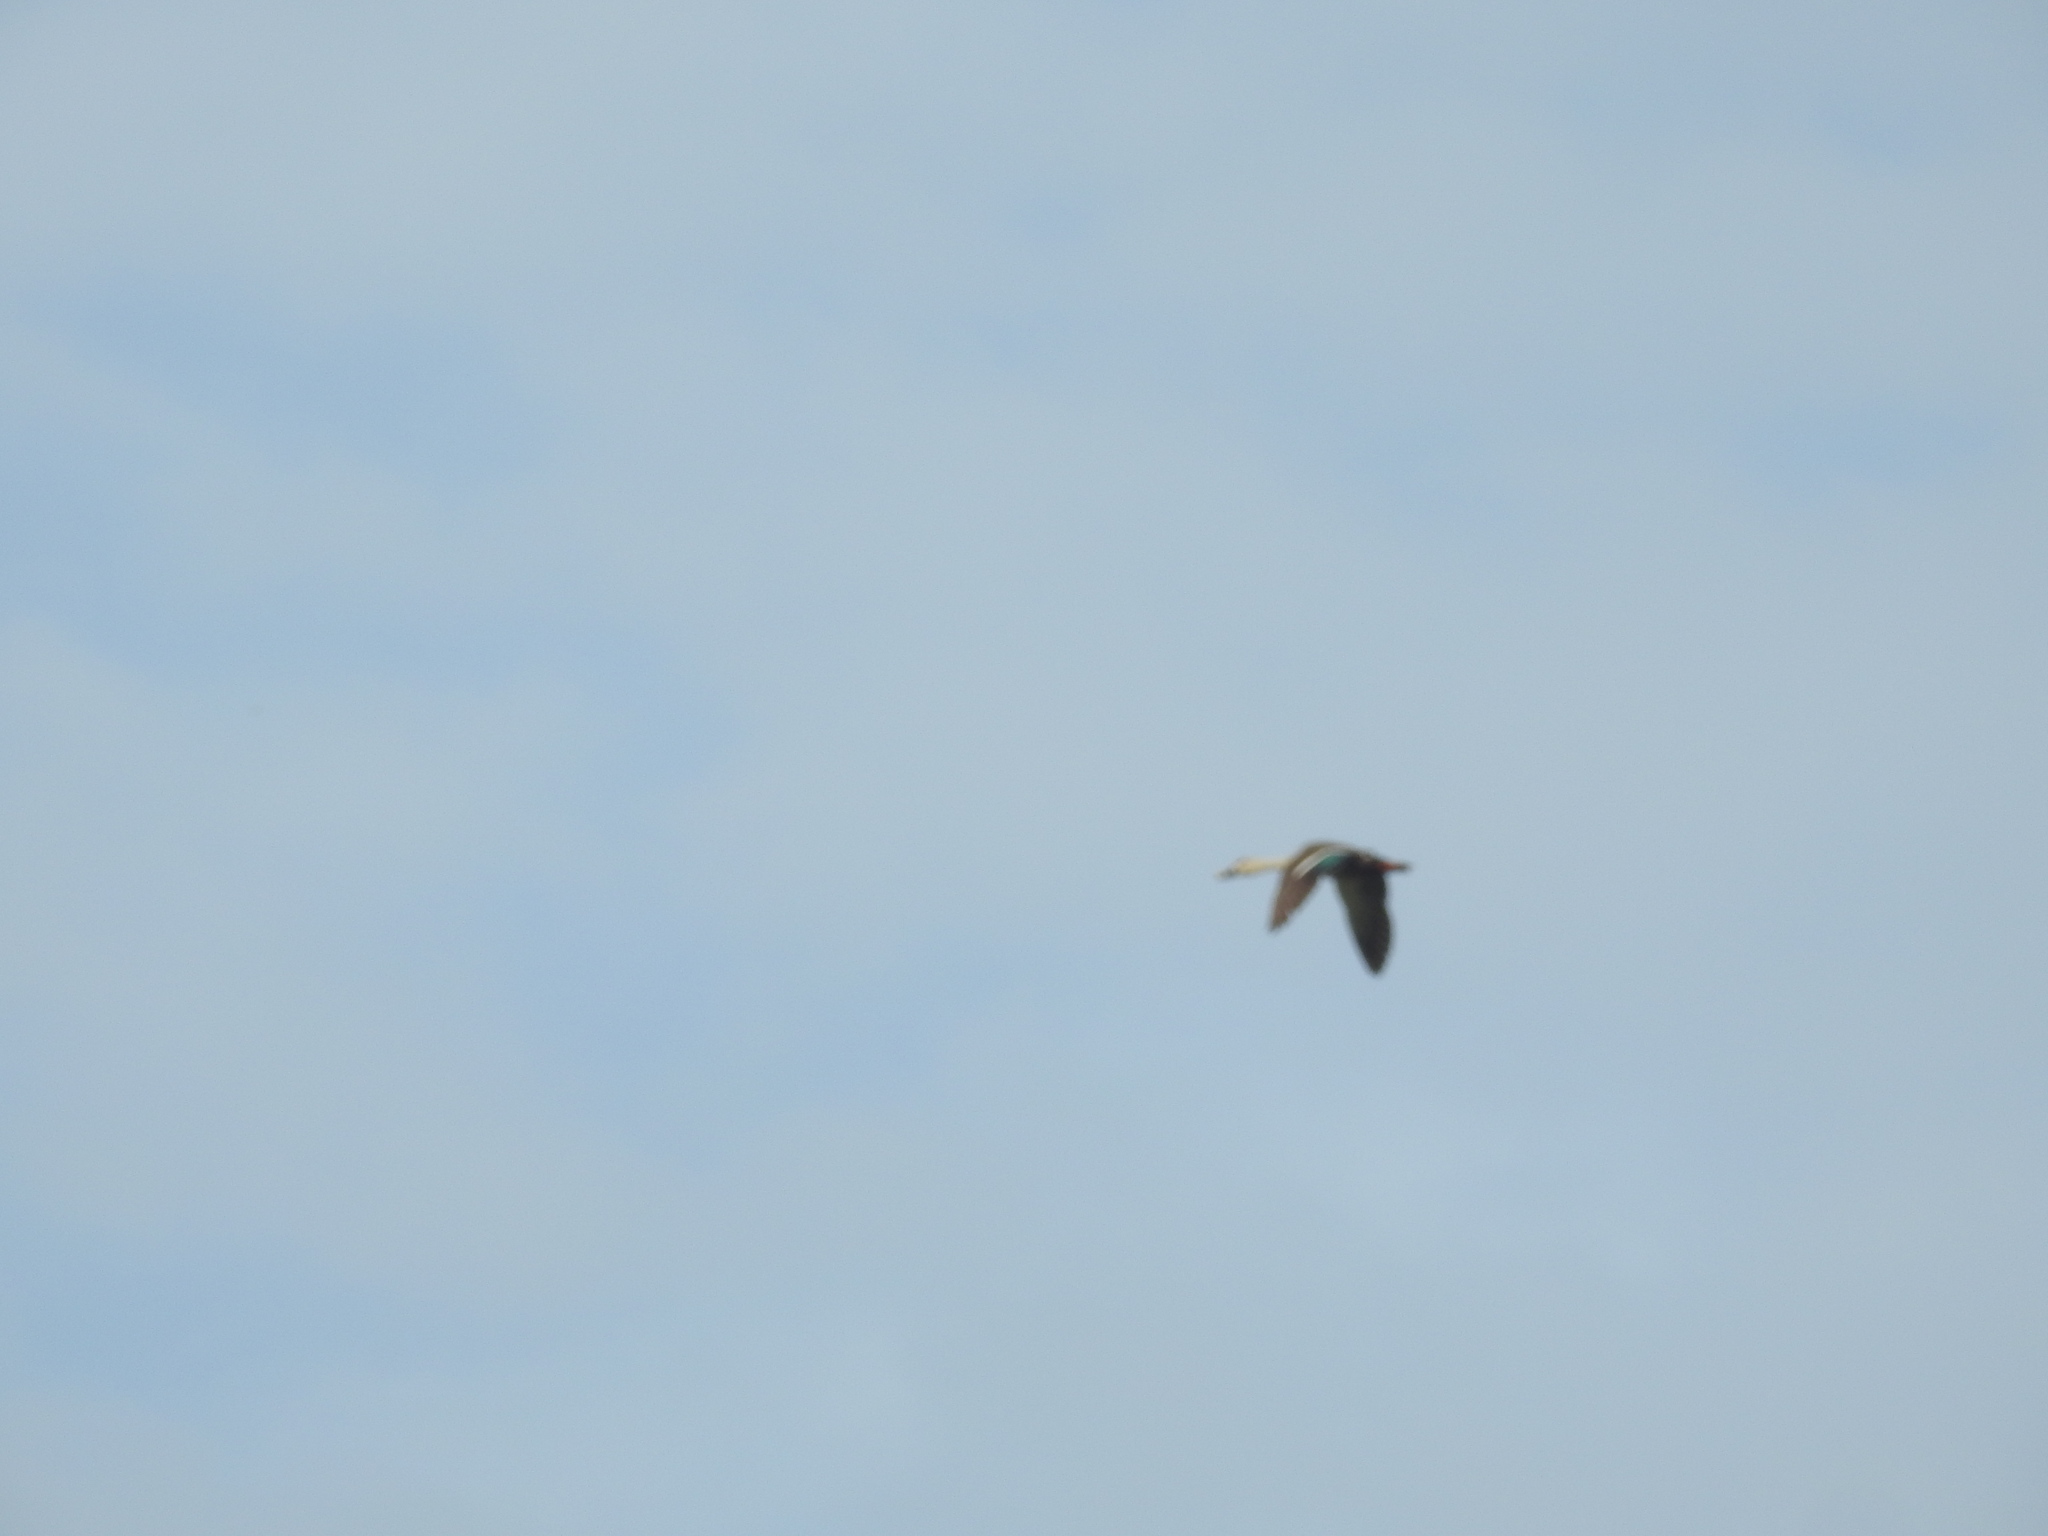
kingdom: Animalia
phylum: Chordata
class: Aves
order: Anseriformes
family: Anatidae
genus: Anas
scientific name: Anas poecilorhyncha
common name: Indian spot-billed duck
